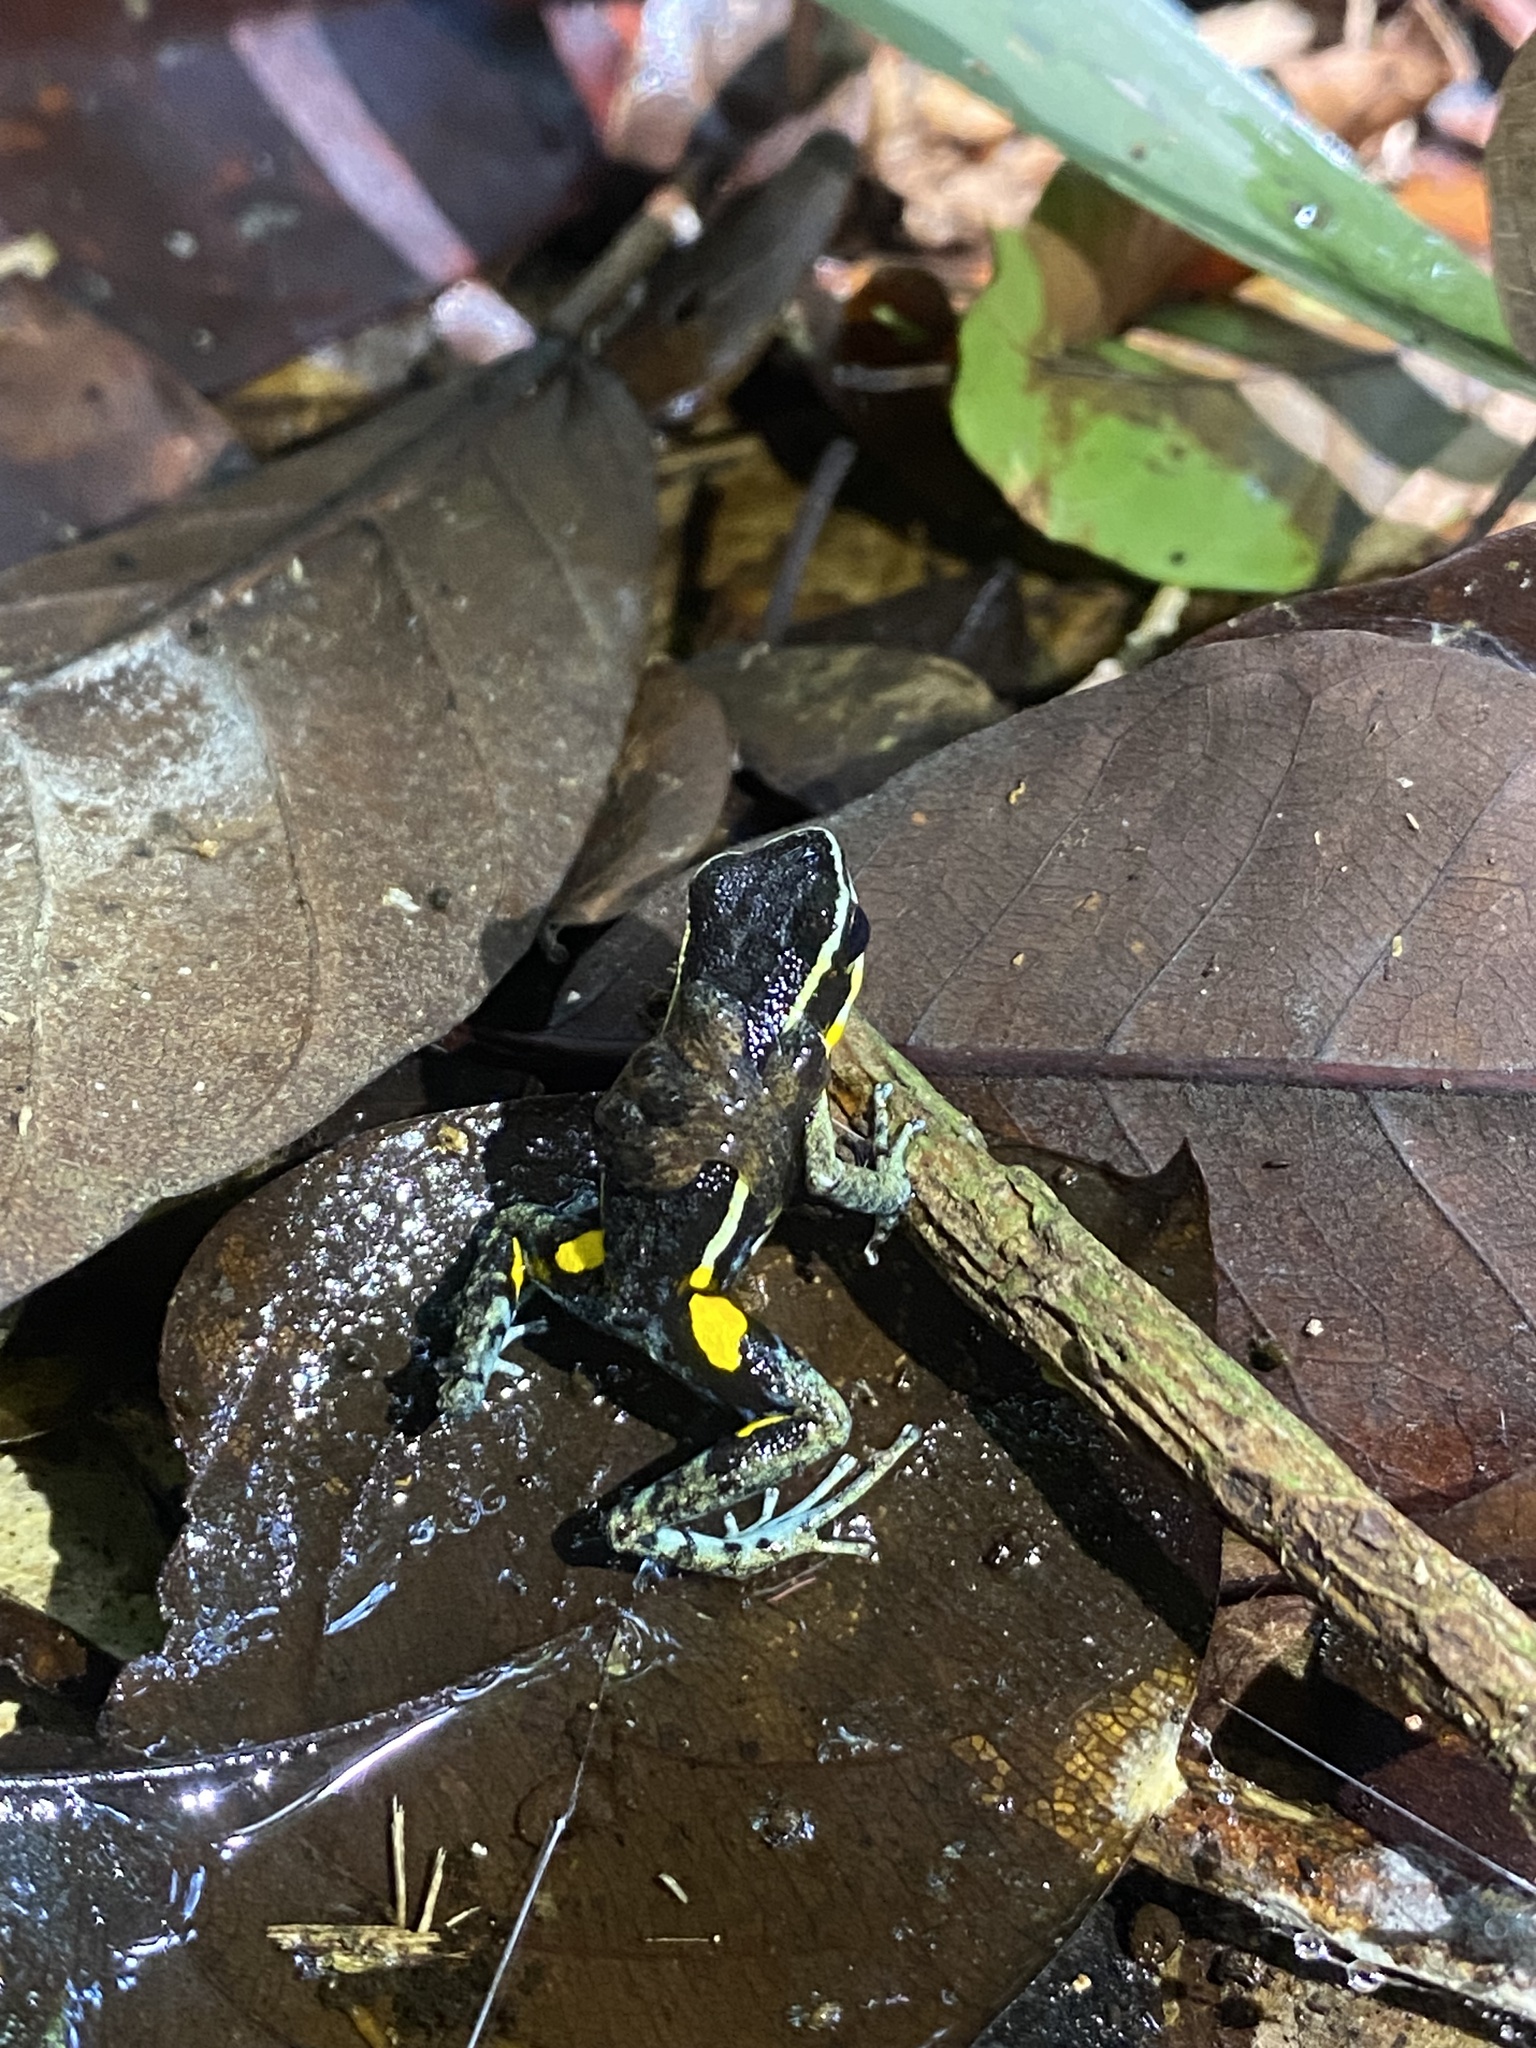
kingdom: Animalia
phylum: Chordata
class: Amphibia
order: Anura
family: Dendrobatidae
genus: Ameerega
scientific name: Ameerega hahneli
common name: Yurimaguas pioson frog
